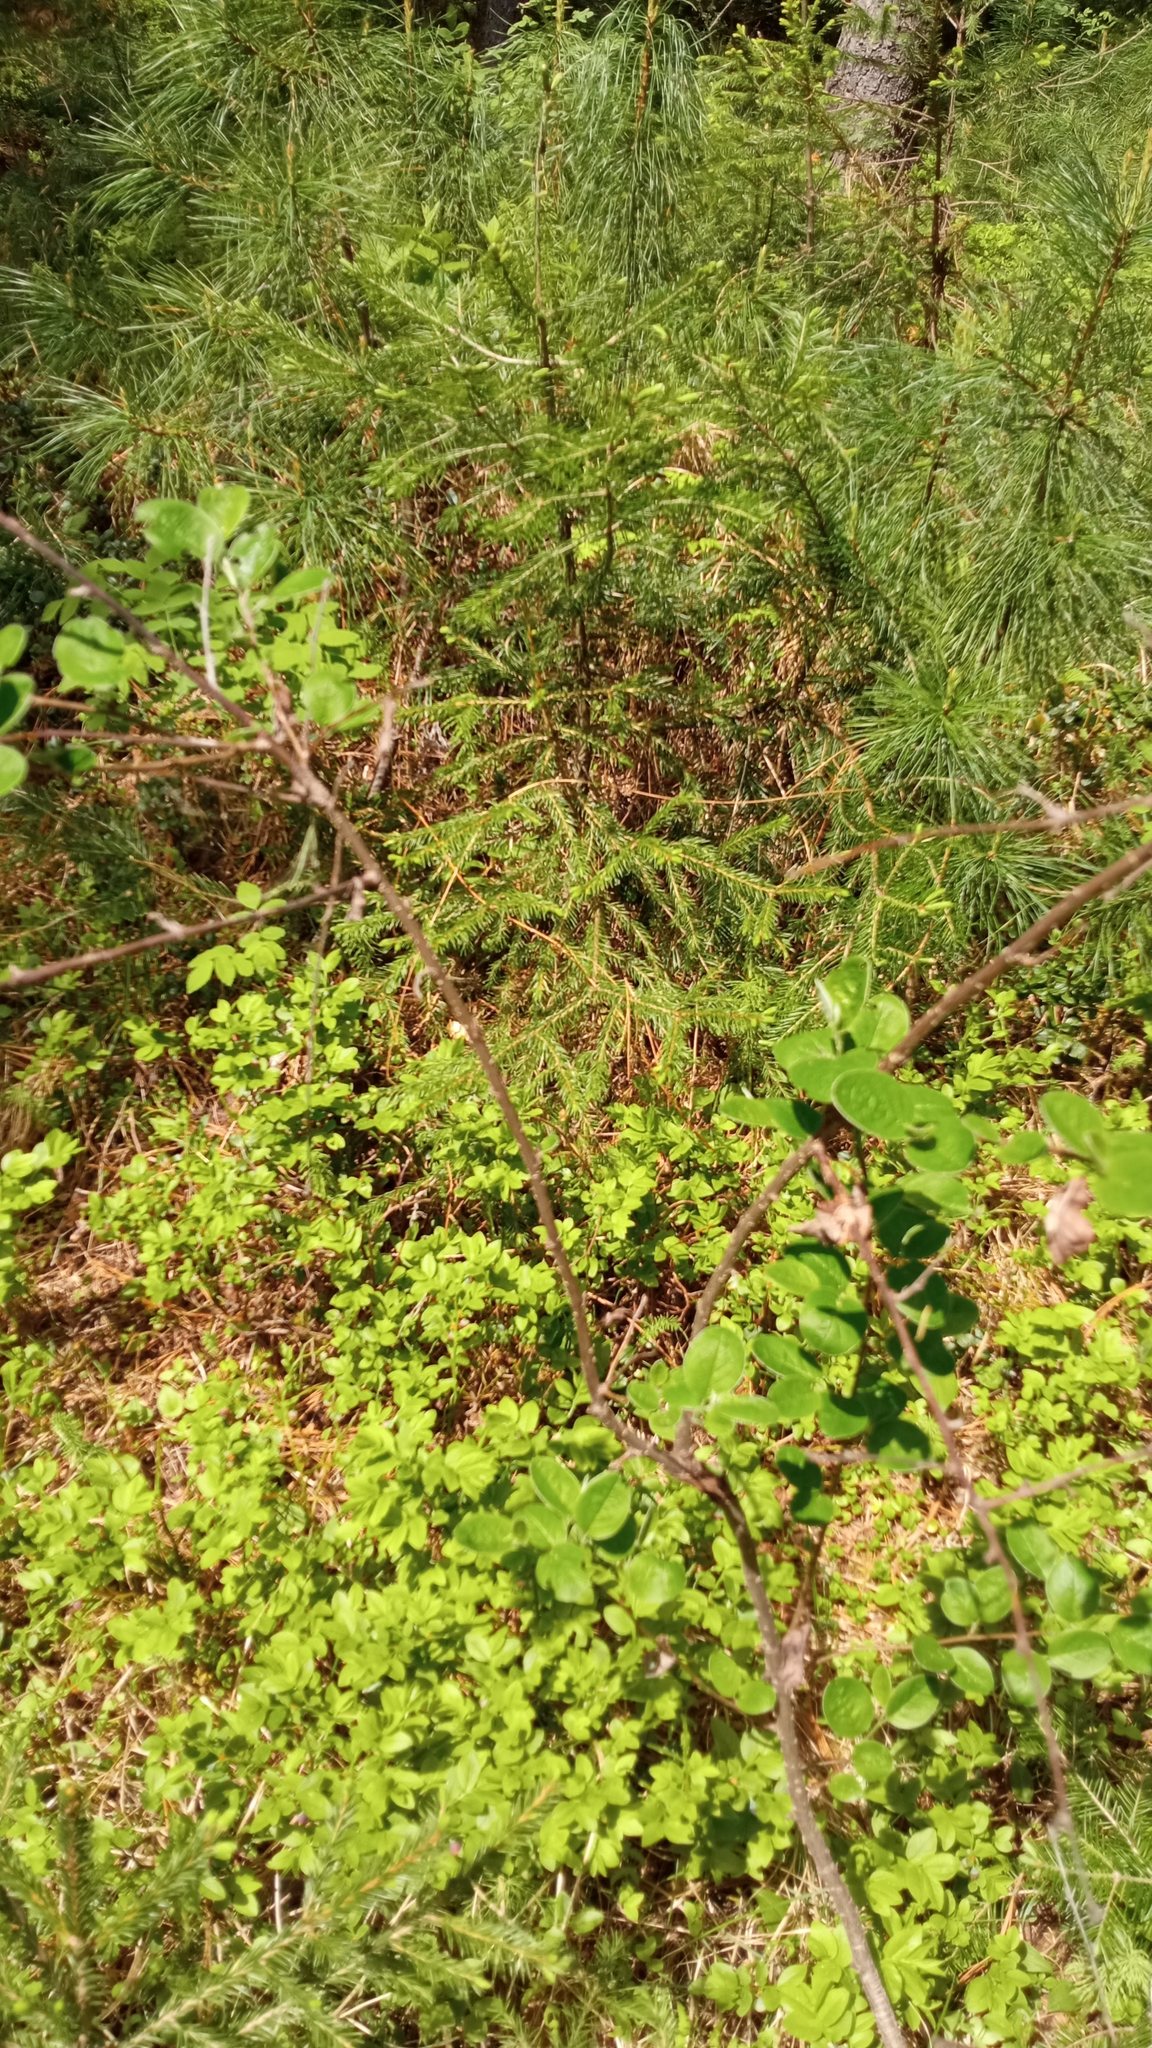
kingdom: Plantae
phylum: Tracheophyta
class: Magnoliopsida
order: Rosales
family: Rosaceae
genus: Cotoneaster
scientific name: Cotoneaster melanocarpus
